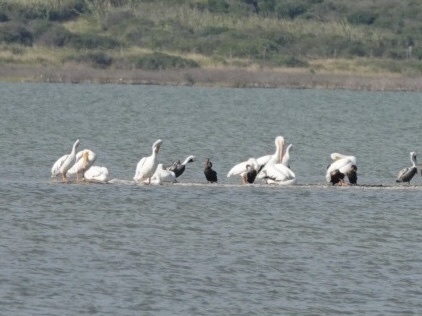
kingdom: Animalia
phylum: Chordata
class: Aves
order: Pelecaniformes
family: Pelecanidae
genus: Pelecanus
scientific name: Pelecanus erythrorhynchos
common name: American white pelican
